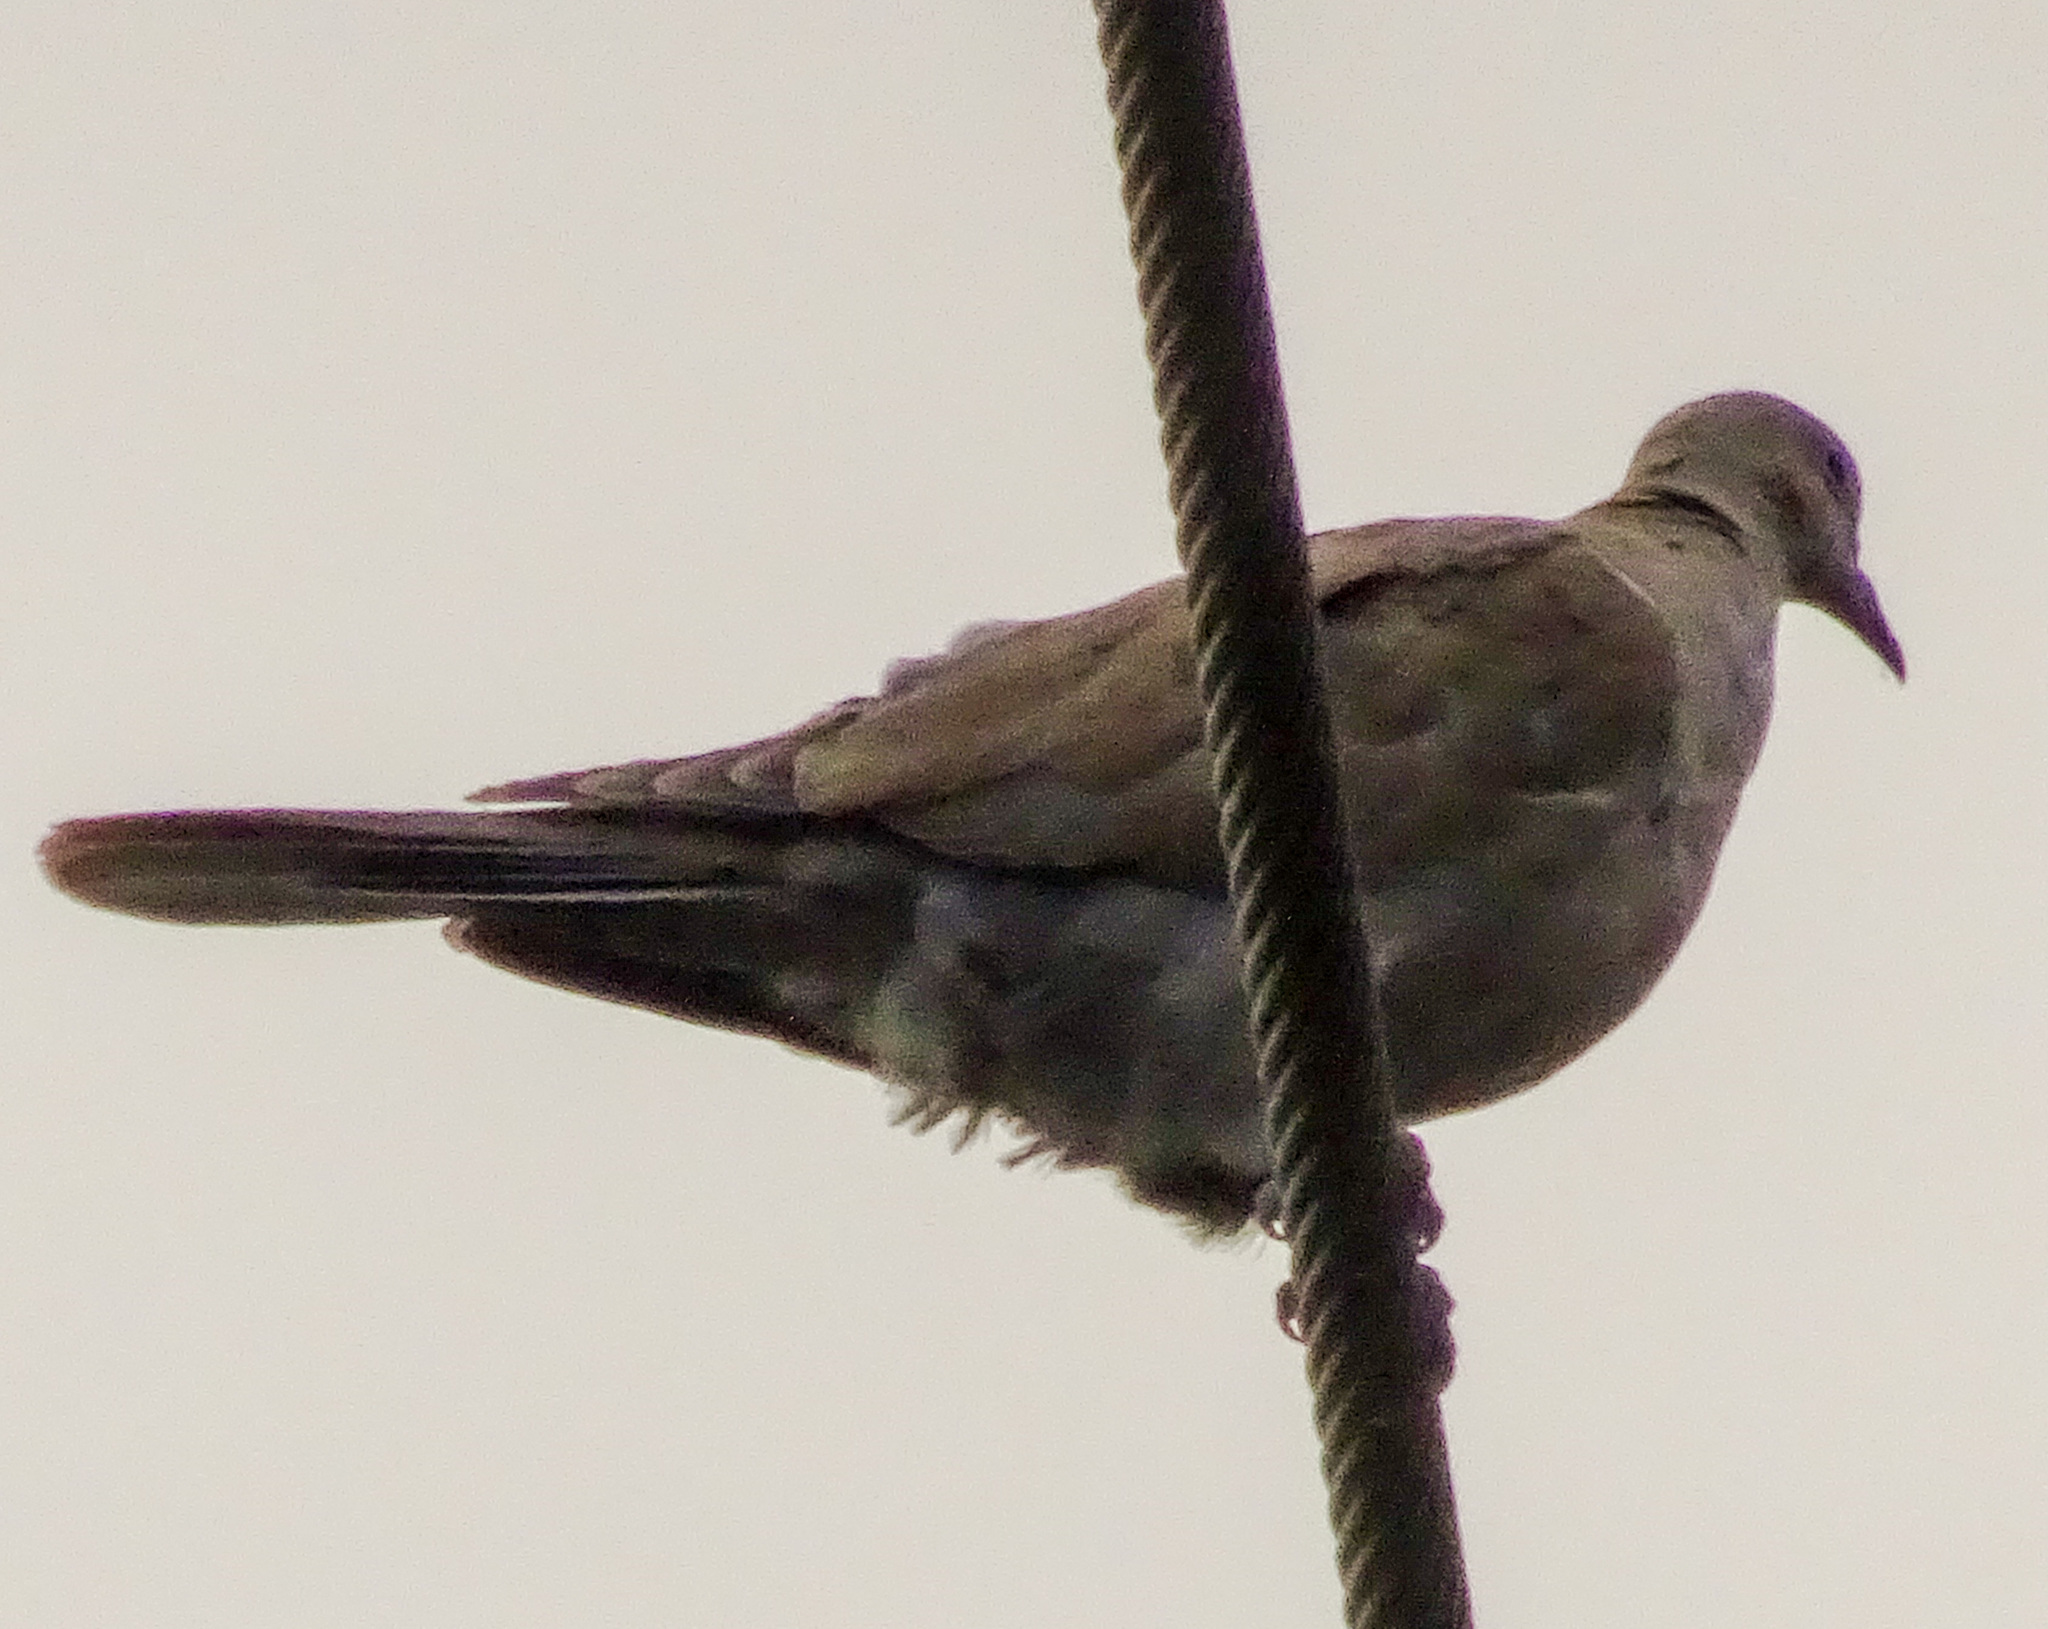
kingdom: Animalia
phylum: Chordata
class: Aves
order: Columbiformes
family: Columbidae
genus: Streptopelia
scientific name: Streptopelia decaocto
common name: Eurasian collared dove
